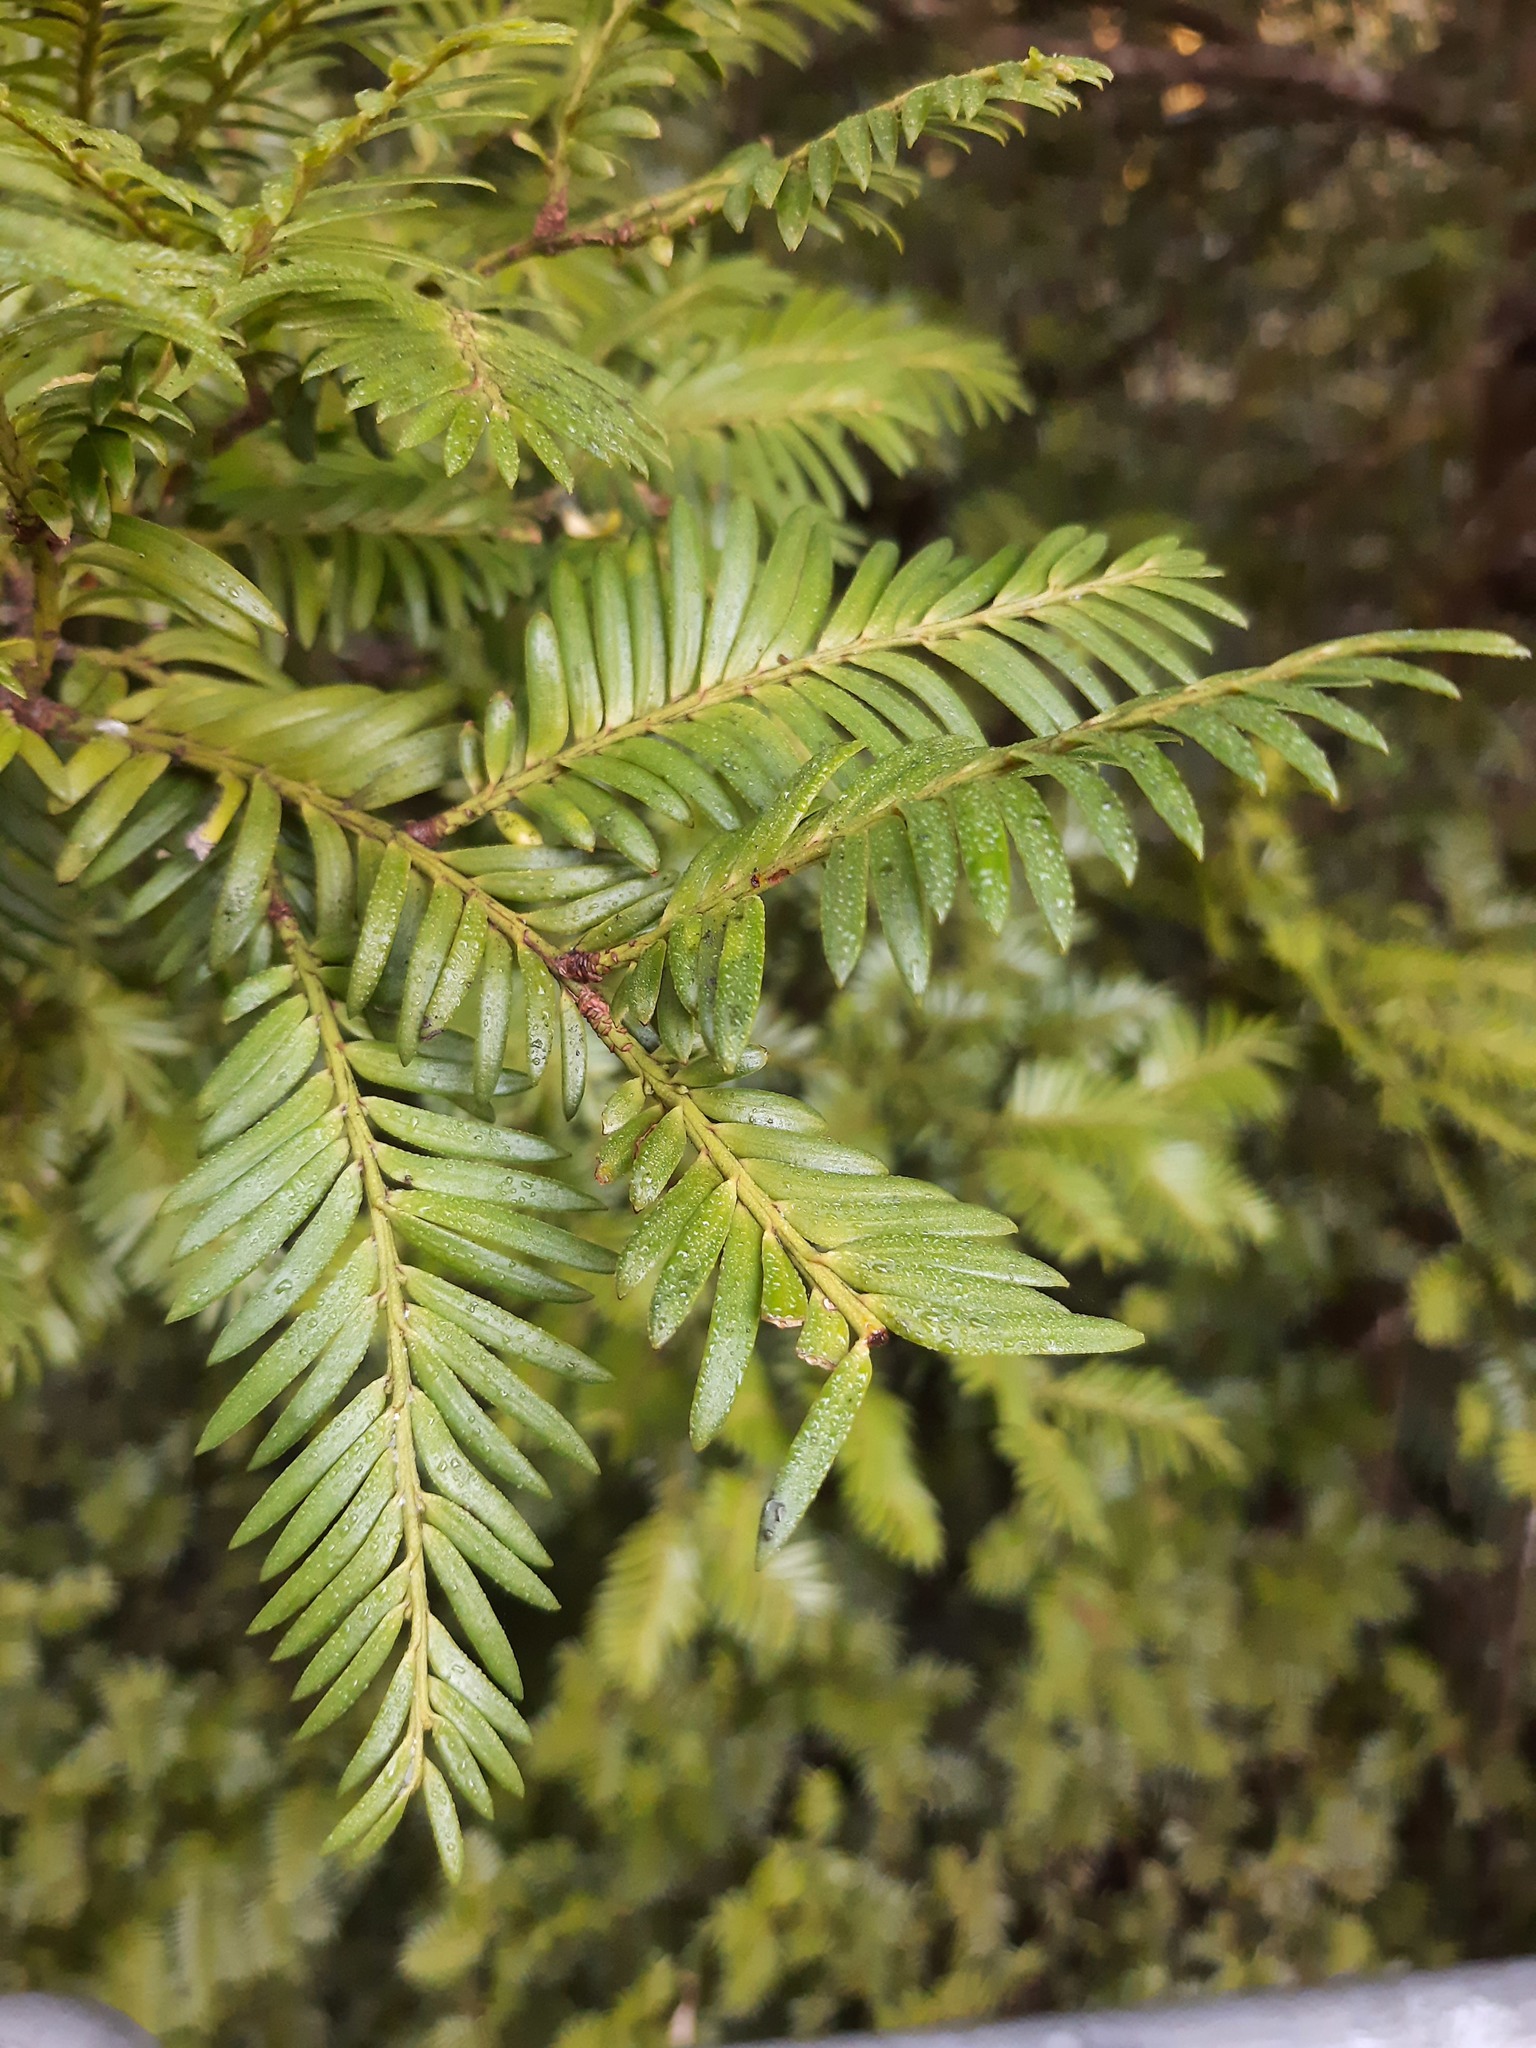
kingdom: Plantae
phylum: Tracheophyta
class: Pinopsida
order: Pinales
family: Podocarpaceae
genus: Prumnopitys
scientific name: Prumnopitys ferruginea
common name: Brown pine
